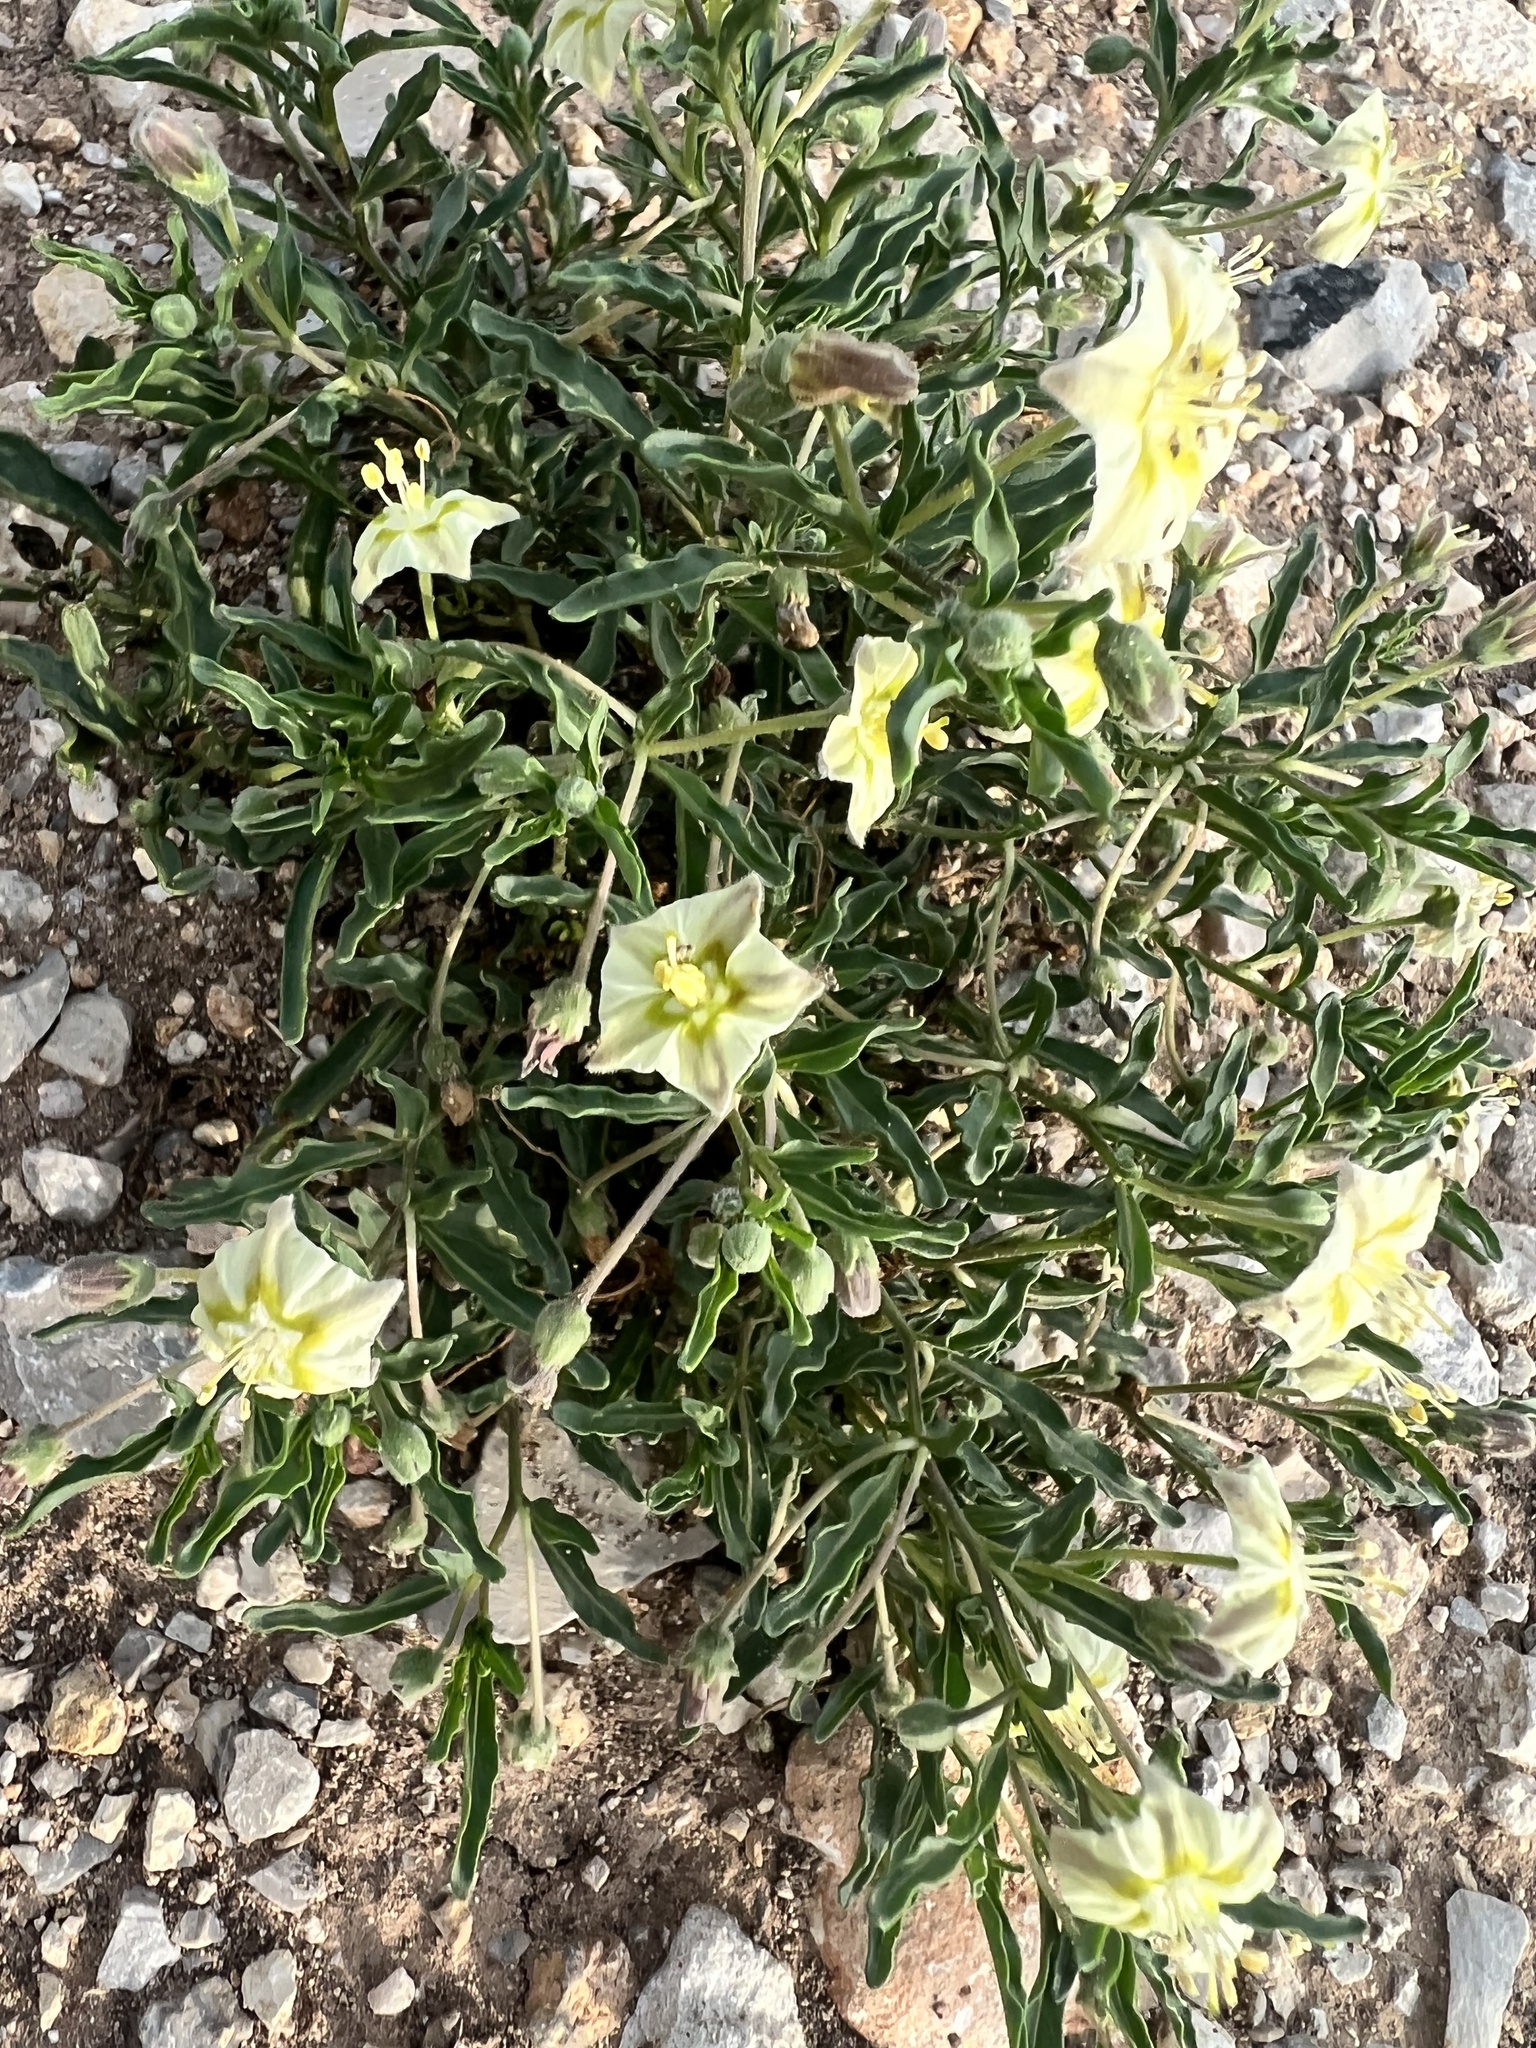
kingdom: Plantae
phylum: Tracheophyta
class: Magnoliopsida
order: Solanales
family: Solanaceae
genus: Chamaesaracha
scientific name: Chamaesaracha edwardsiana
